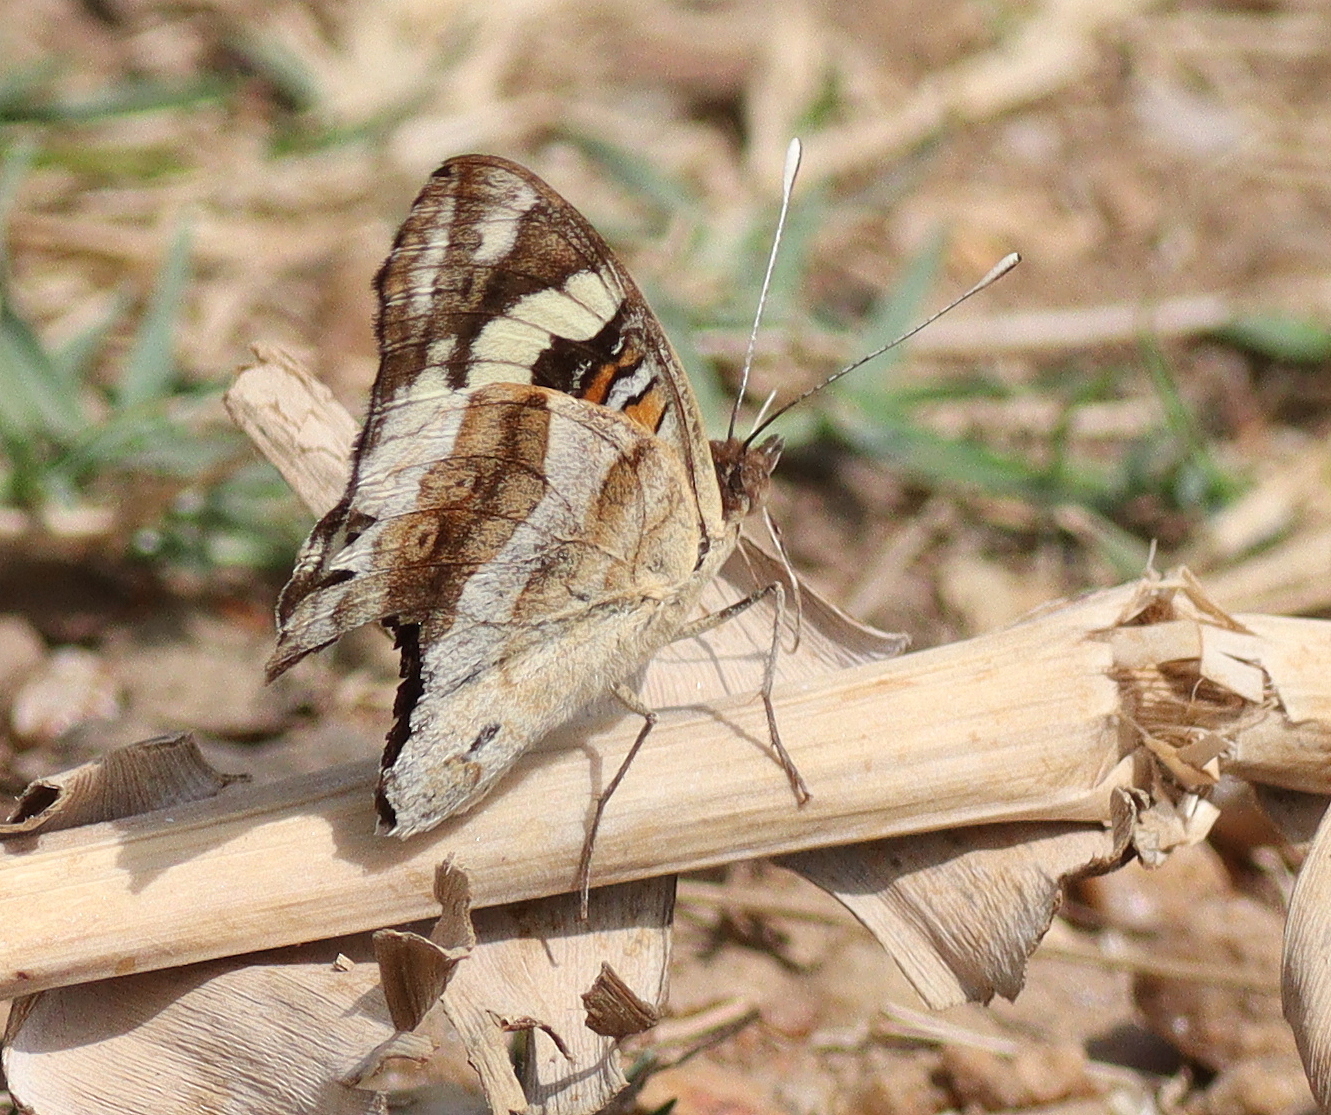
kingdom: Animalia
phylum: Arthropoda
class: Insecta
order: Lepidoptera
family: Nymphalidae
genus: Junonia
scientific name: Junonia oenone
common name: Dark blue pansy
